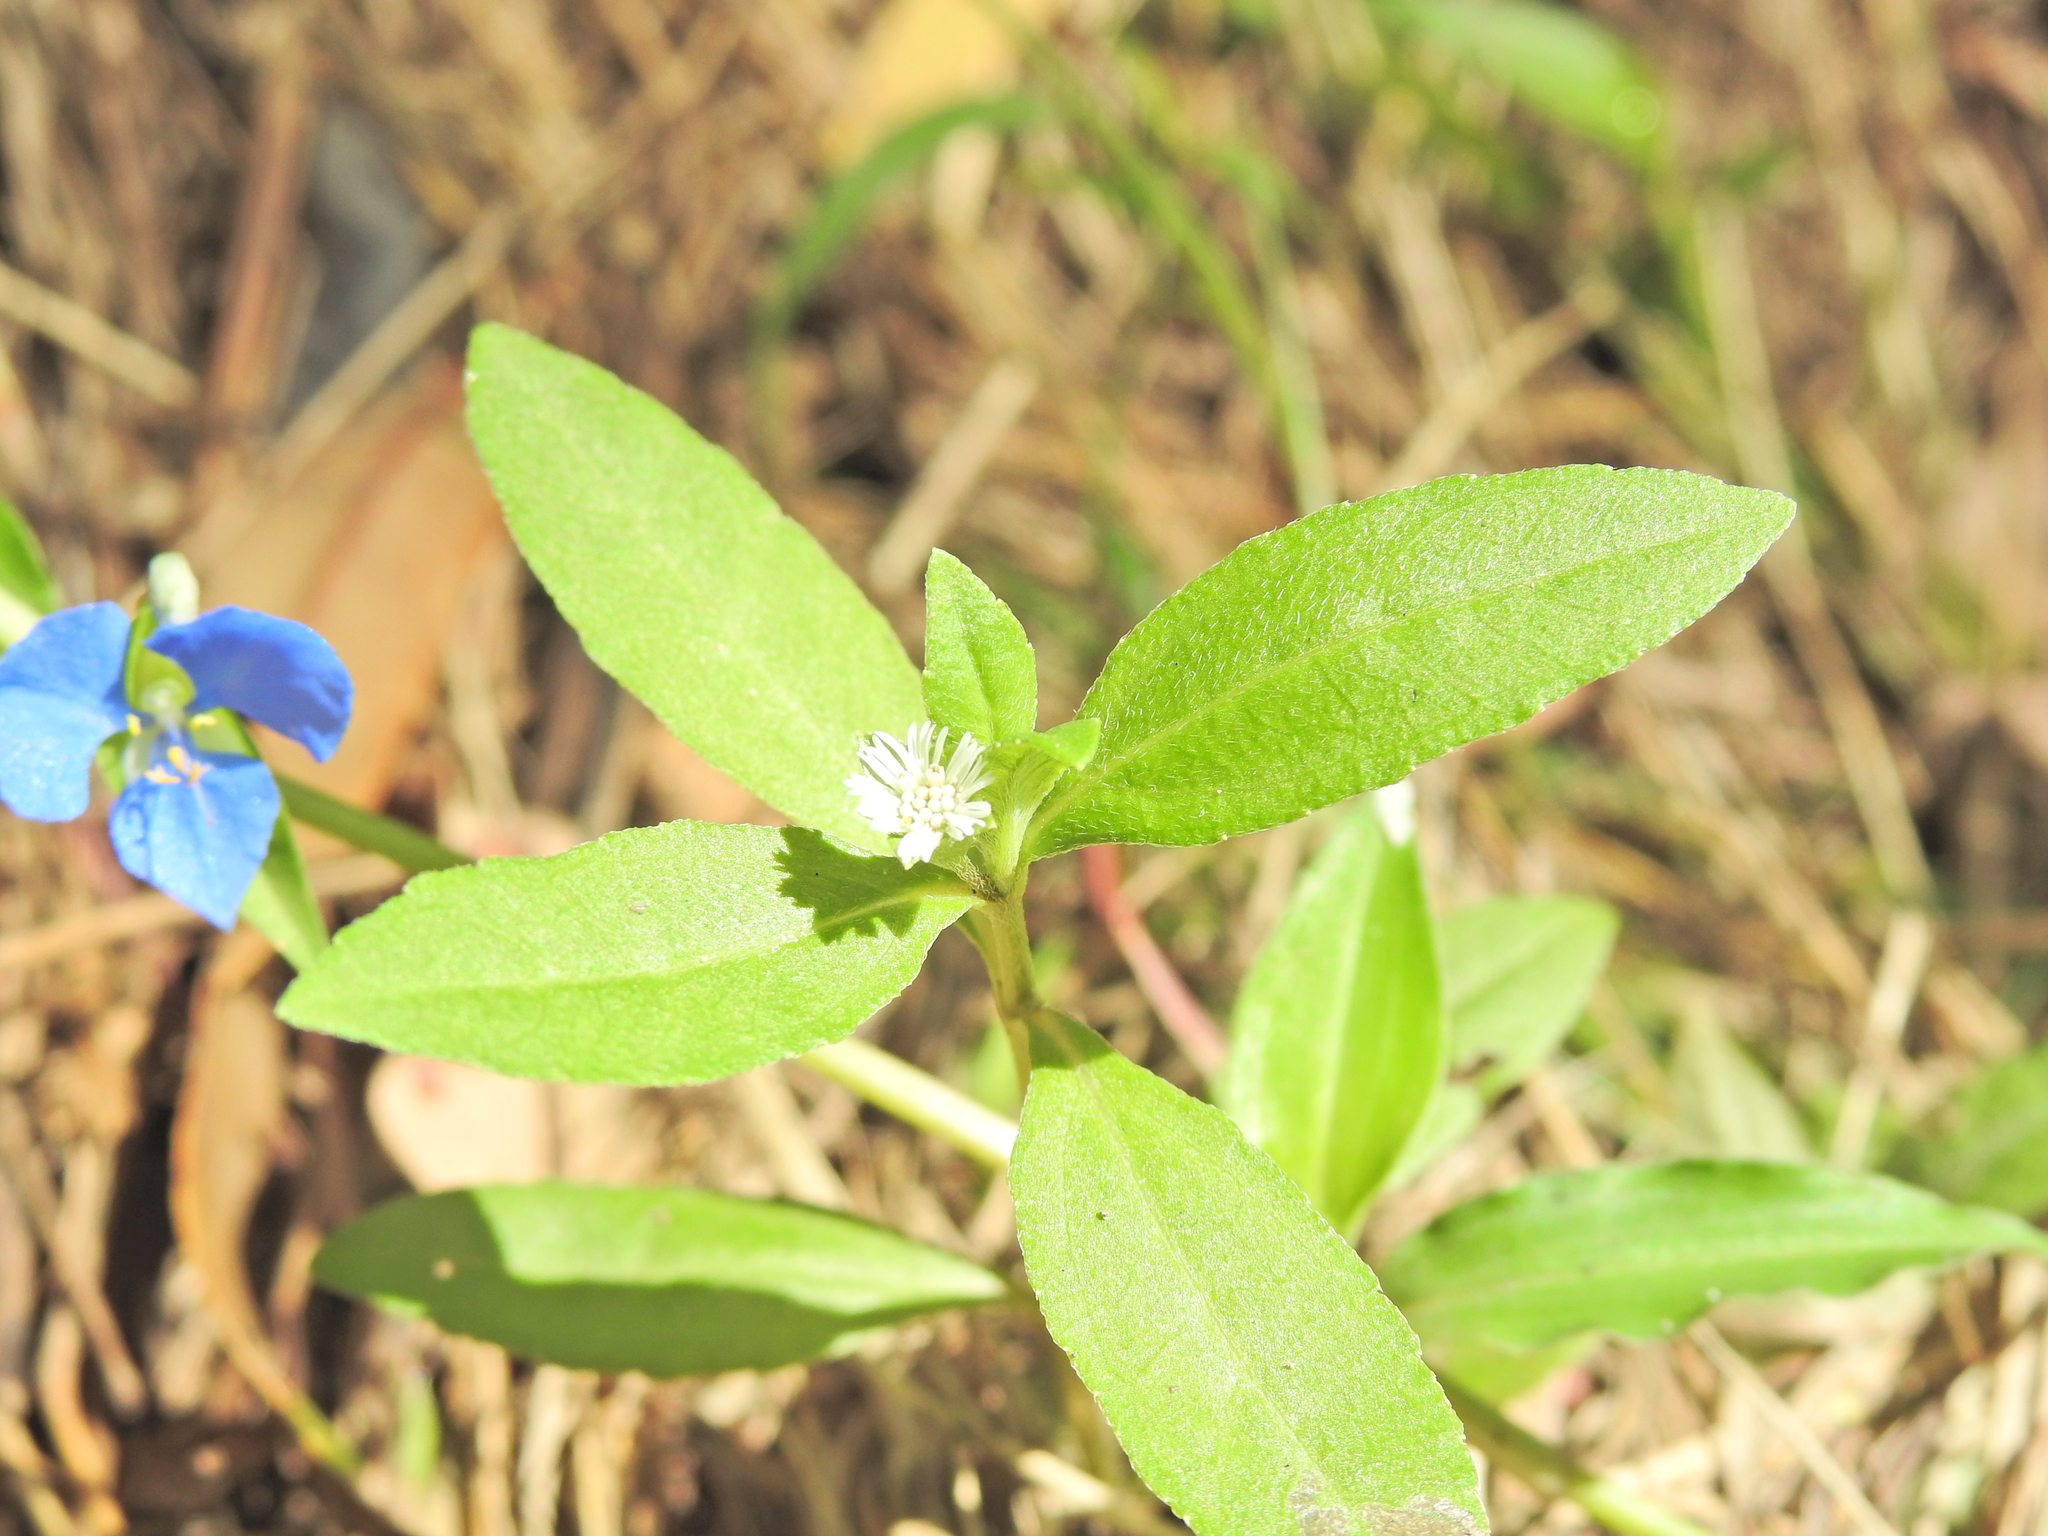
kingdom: Plantae
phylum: Tracheophyta
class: Magnoliopsida
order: Asterales
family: Asteraceae
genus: Eclipta
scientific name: Eclipta prostrata
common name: False daisy
